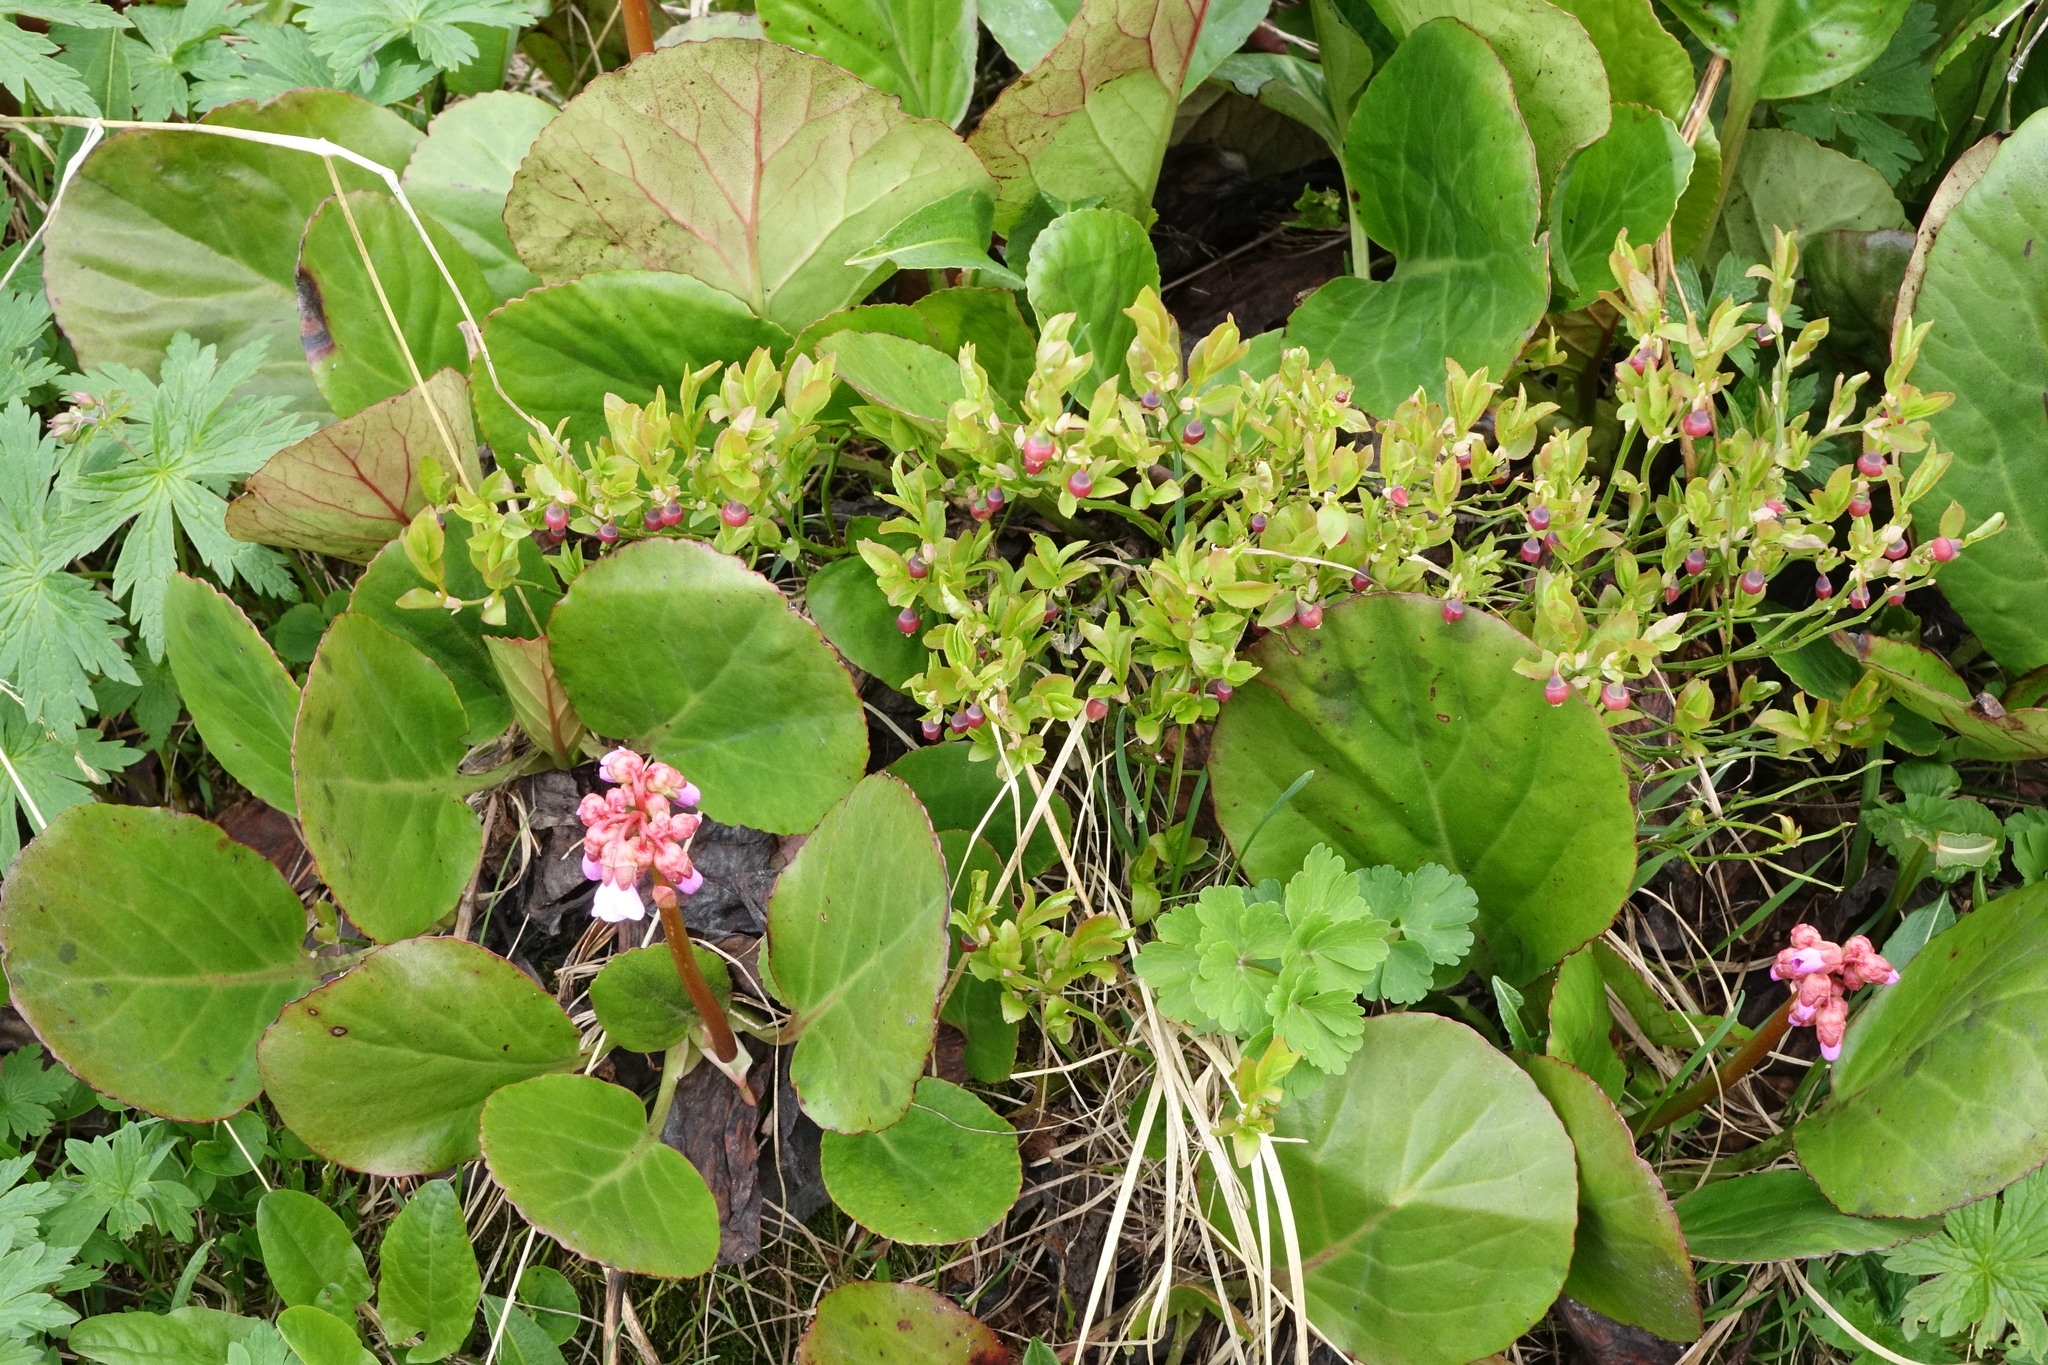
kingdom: Plantae
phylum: Tracheophyta
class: Magnoliopsida
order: Ericales
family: Ericaceae
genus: Vaccinium
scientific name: Vaccinium myrtillus
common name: Bilberry
